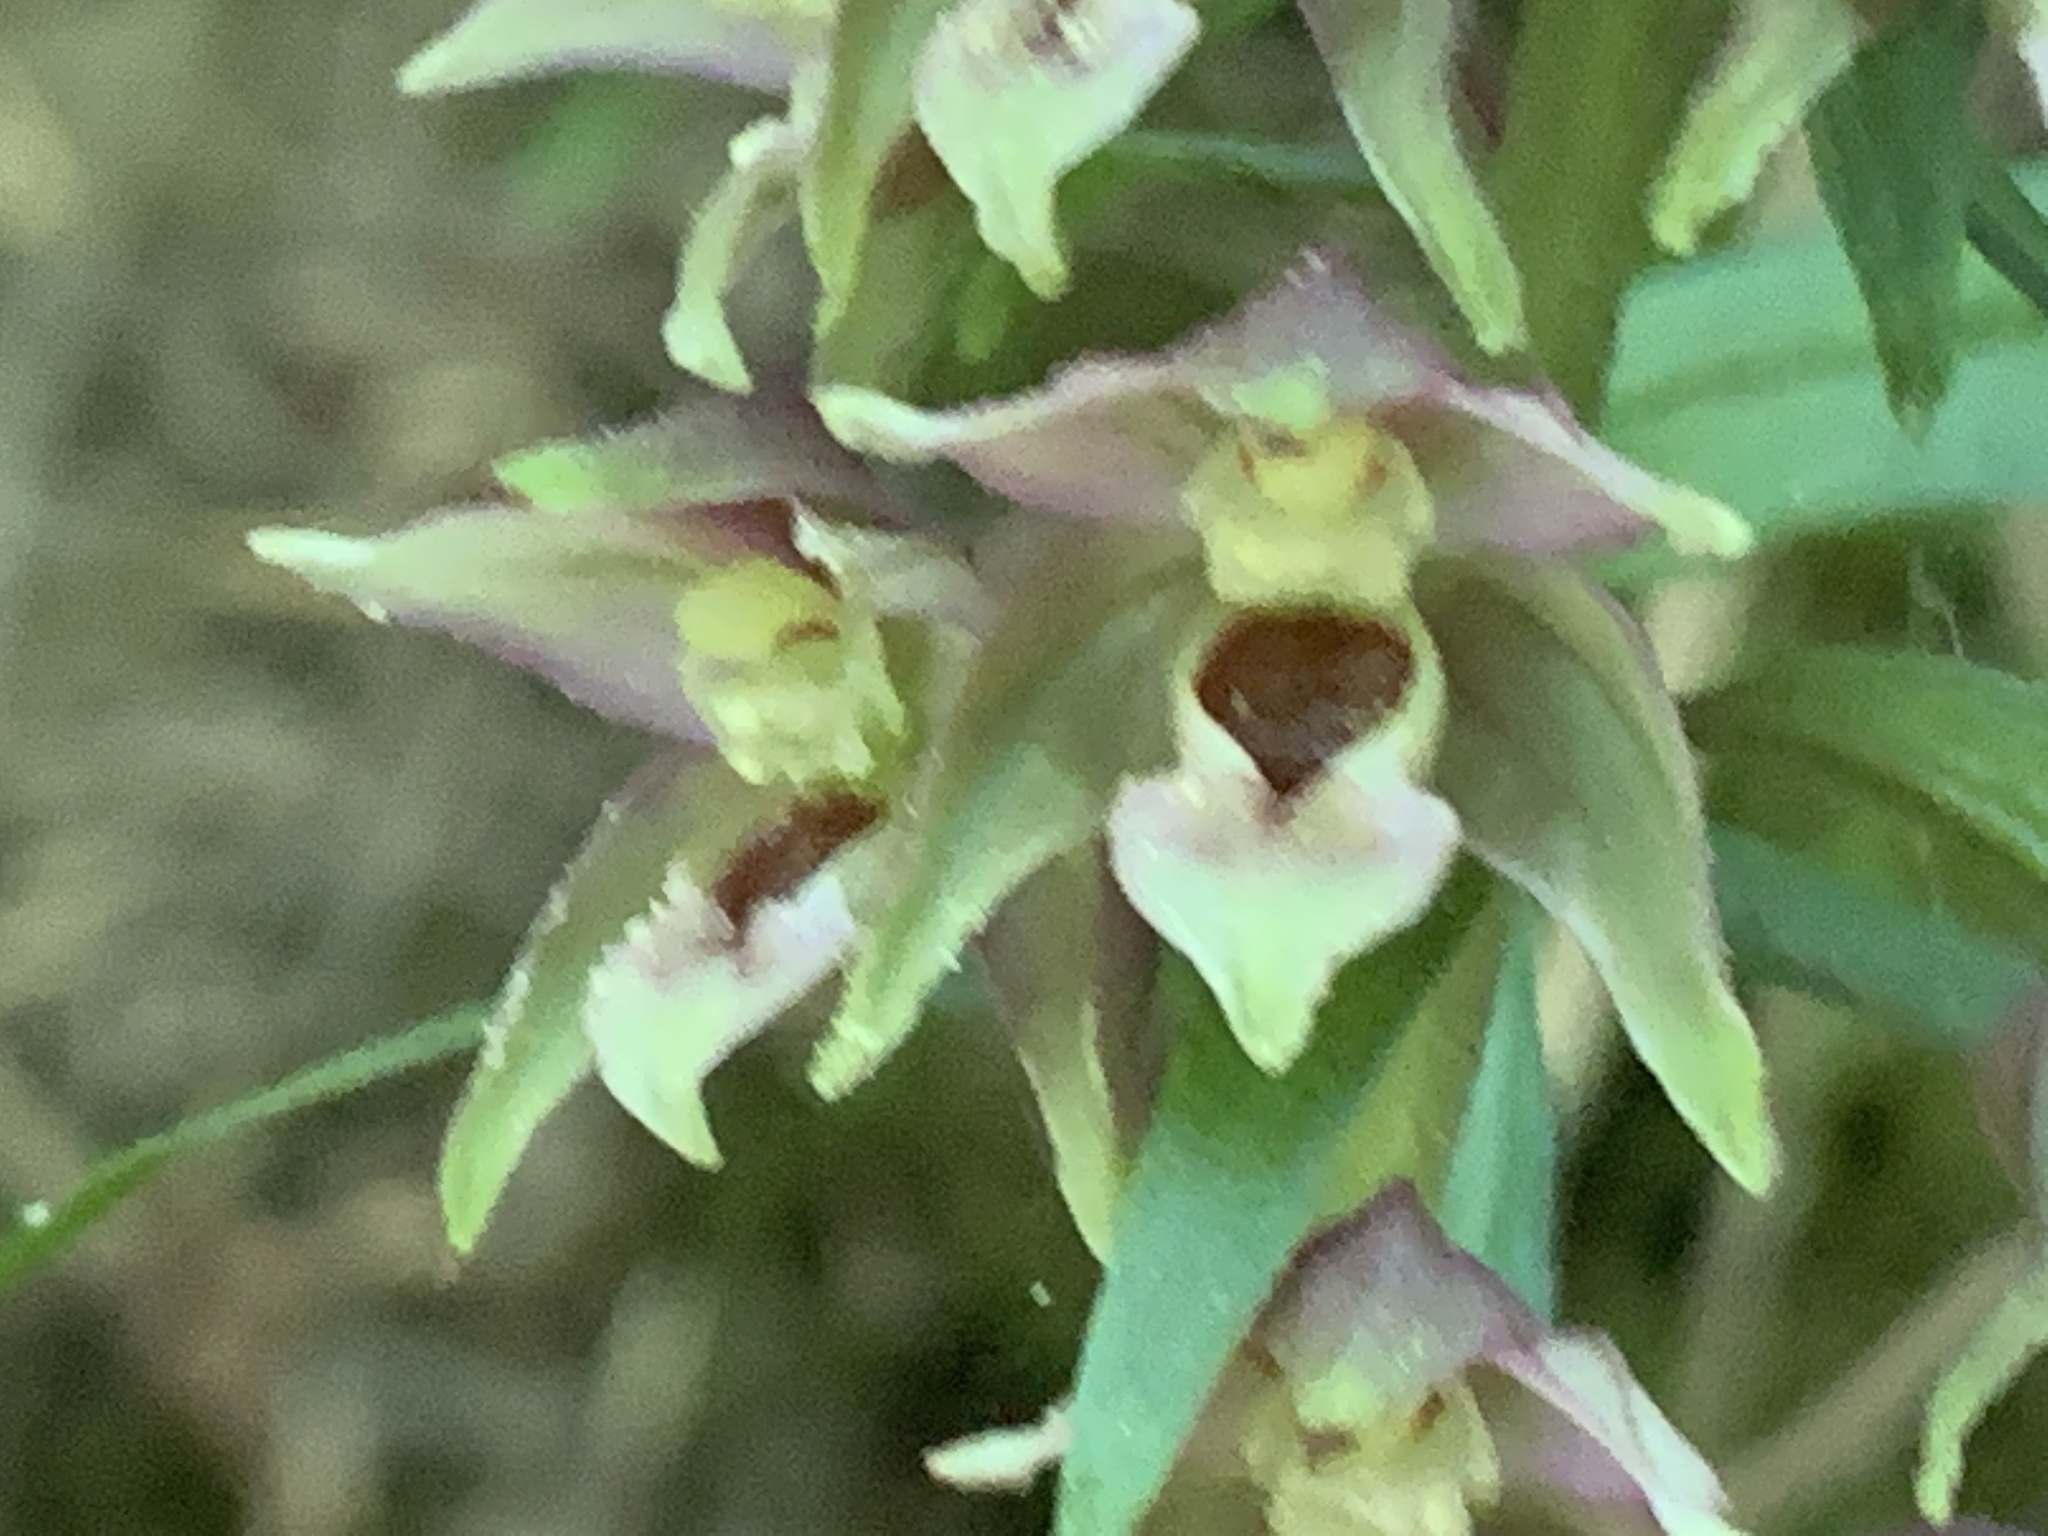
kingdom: Plantae
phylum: Tracheophyta
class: Liliopsida
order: Asparagales
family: Orchidaceae
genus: Epipactis
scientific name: Epipactis helleborine
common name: Broad-leaved helleborine
